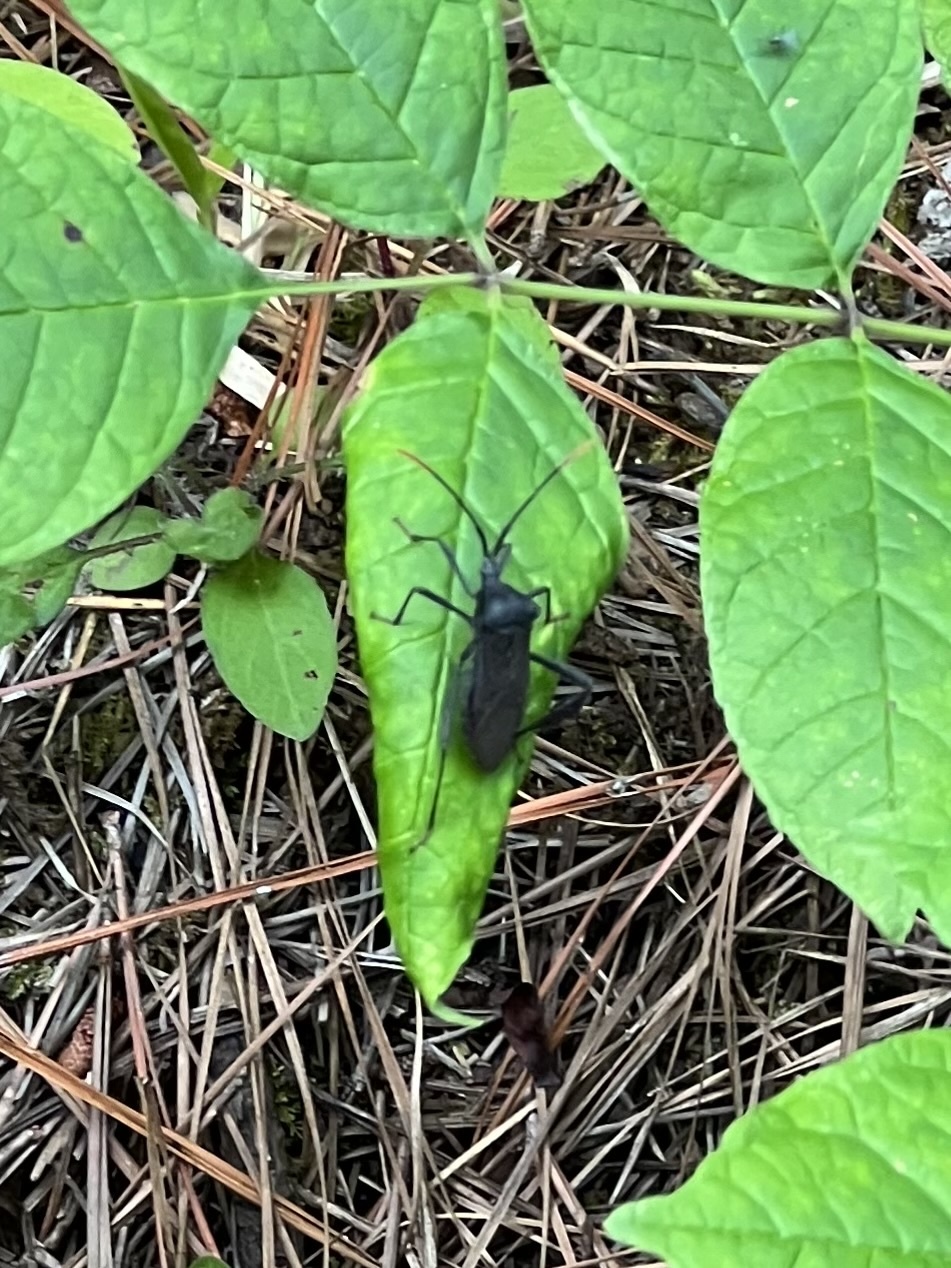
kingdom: Animalia
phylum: Arthropoda
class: Insecta
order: Hemiptera
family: Coreidae
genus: Acanthocephala
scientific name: Acanthocephala terminalis
